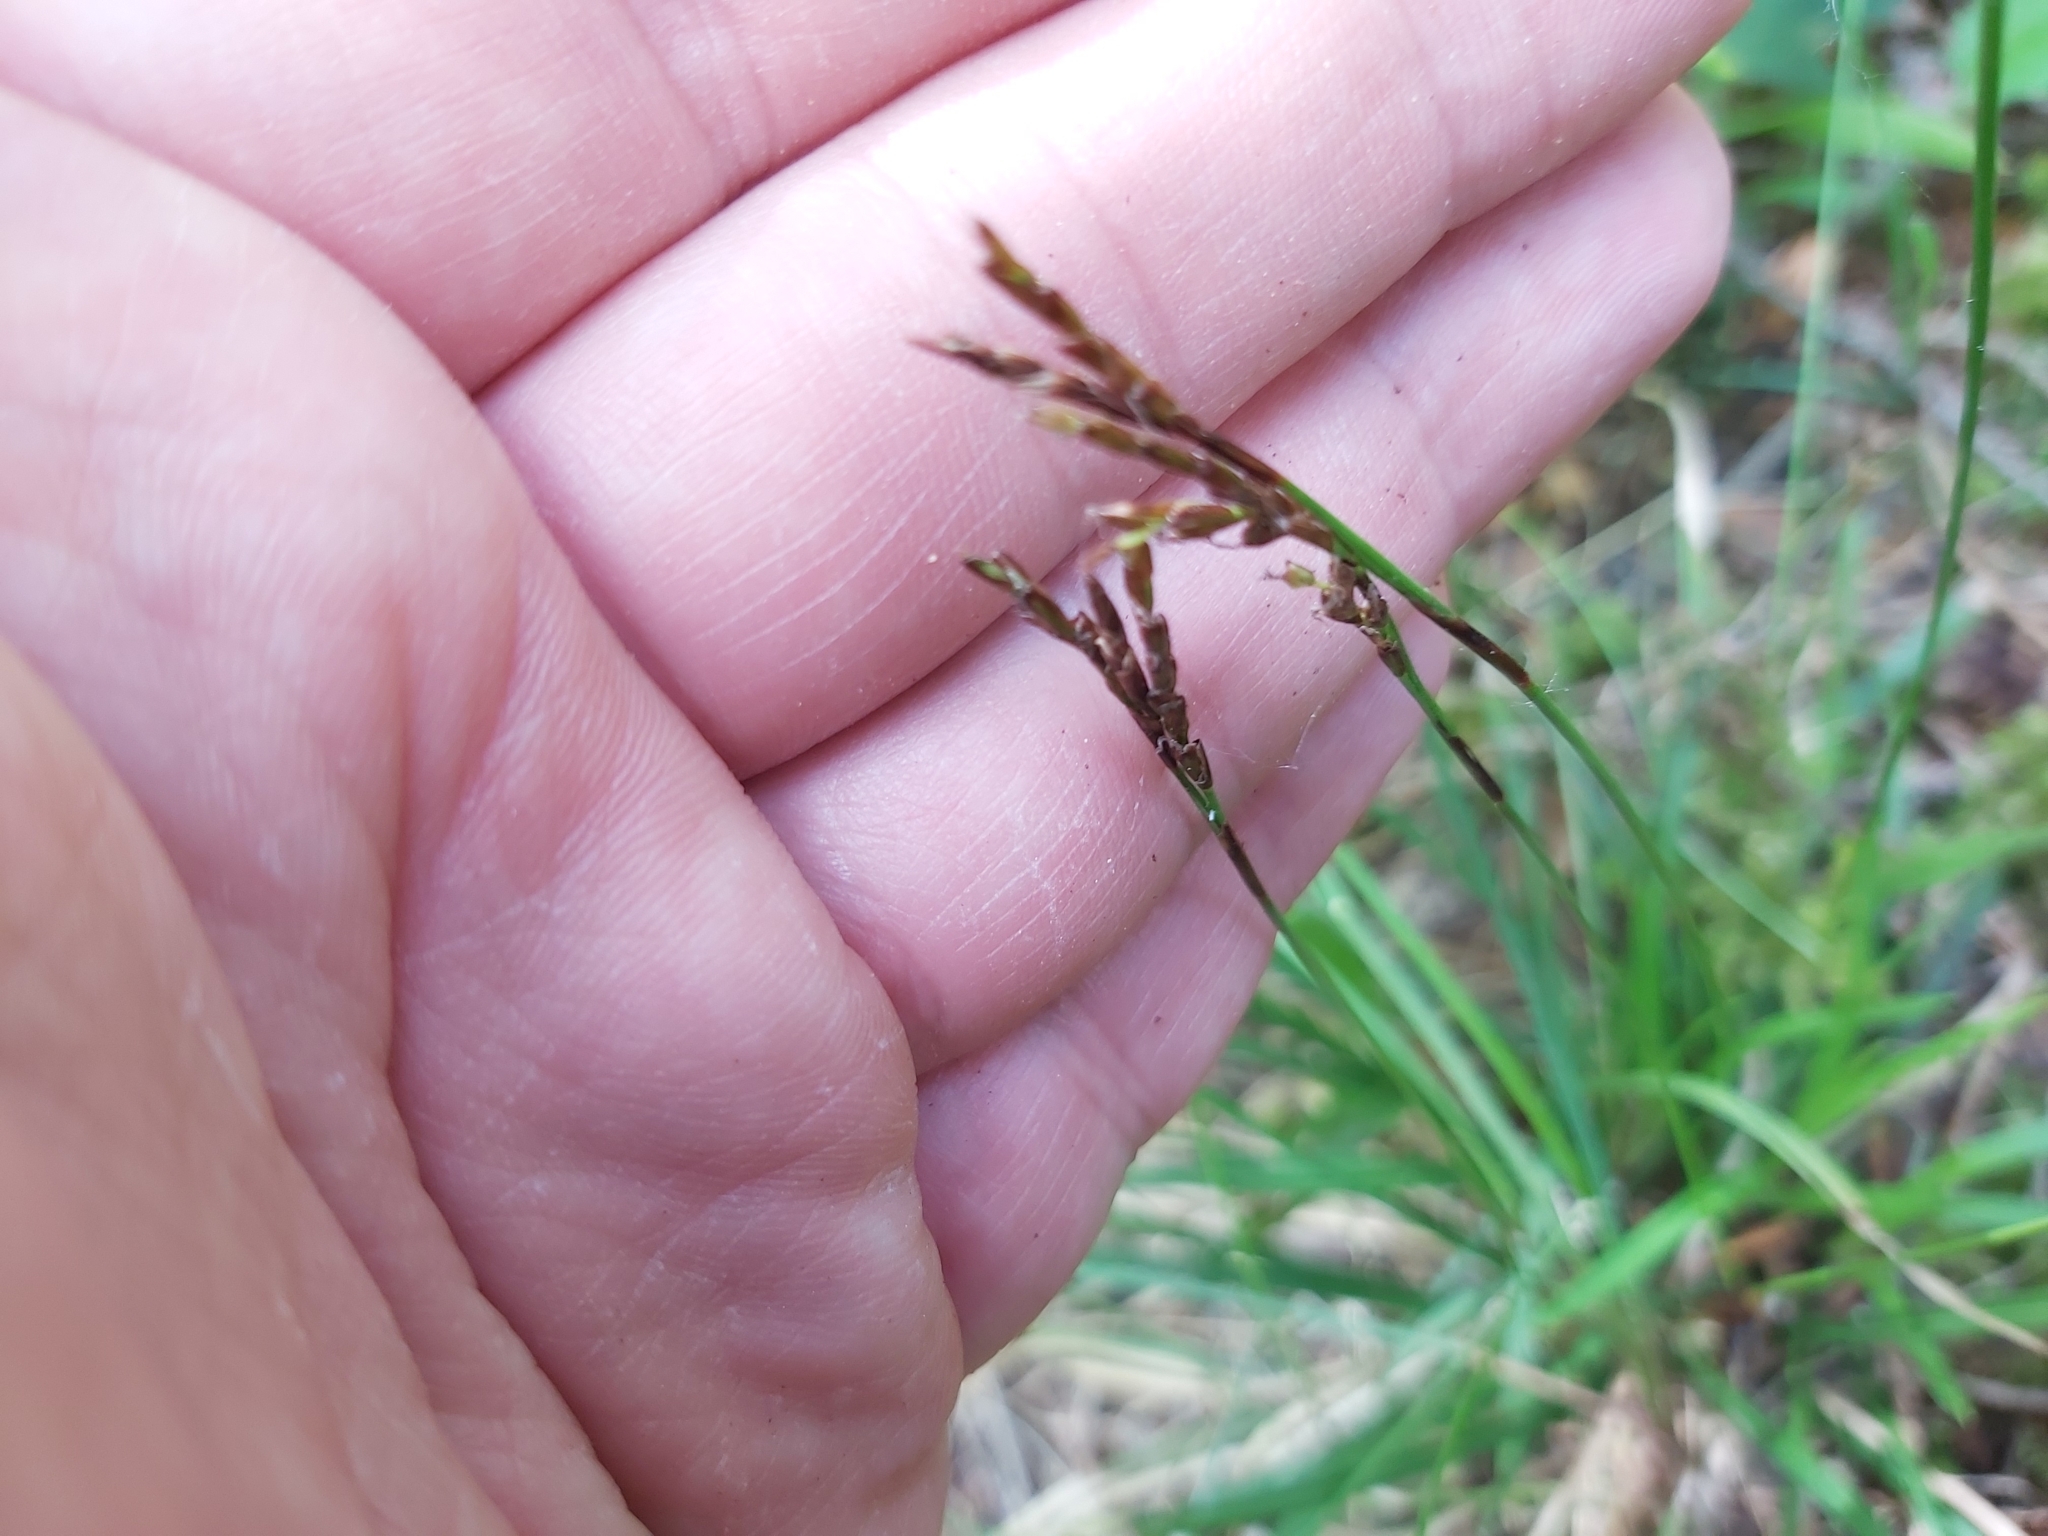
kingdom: Plantae
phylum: Tracheophyta
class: Liliopsida
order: Poales
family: Cyperaceae
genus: Carex
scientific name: Carex digitata
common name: Fingered sedge
